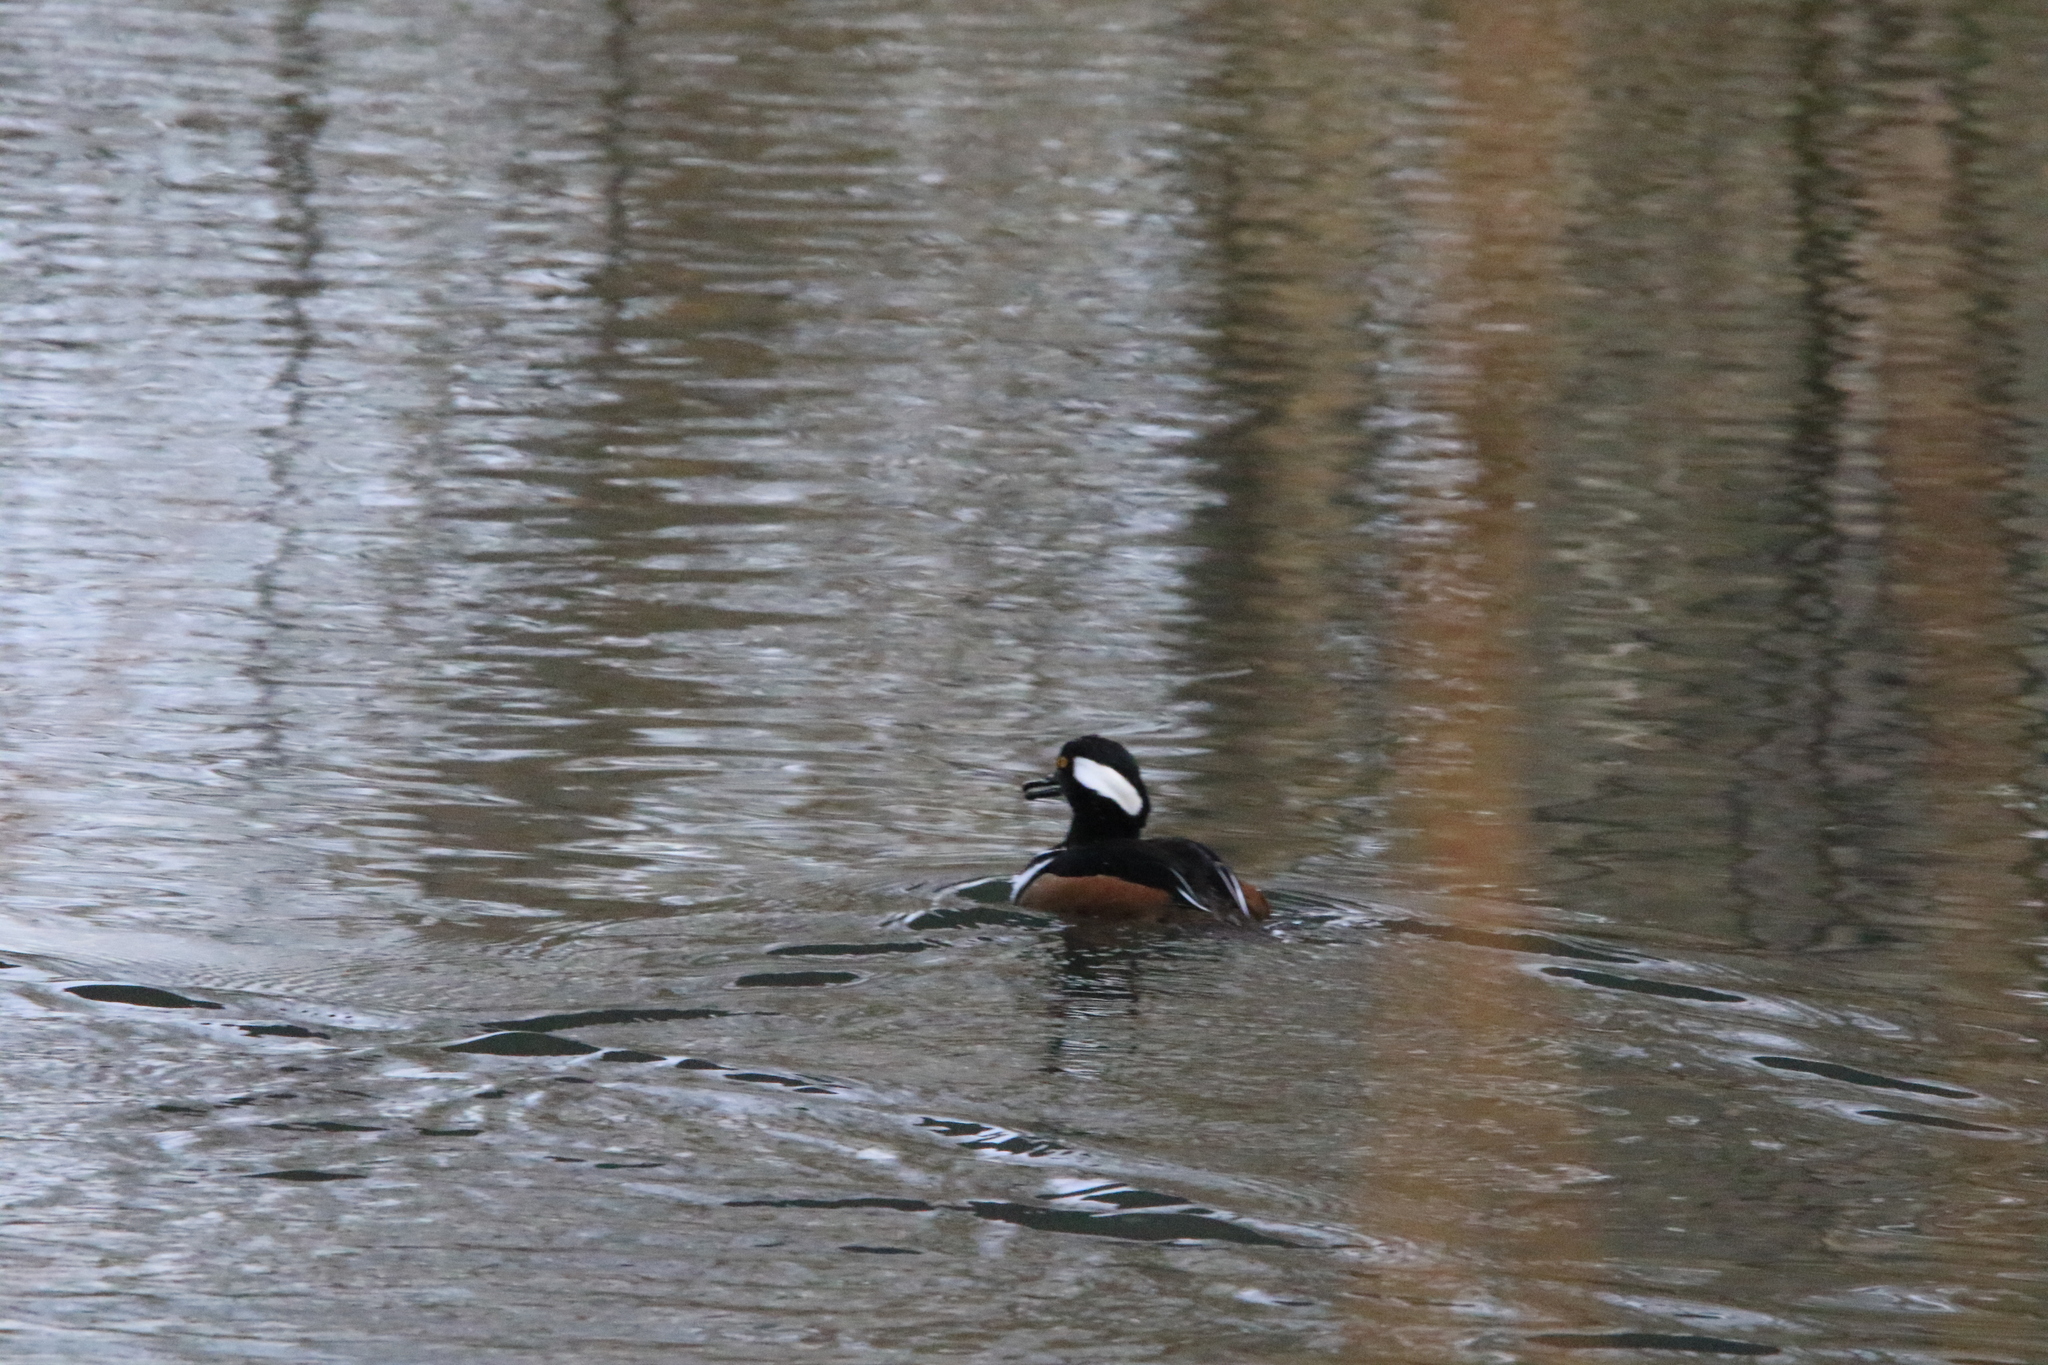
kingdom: Animalia
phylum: Chordata
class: Aves
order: Anseriformes
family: Anatidae
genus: Lophodytes
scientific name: Lophodytes cucullatus
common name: Hooded merganser
